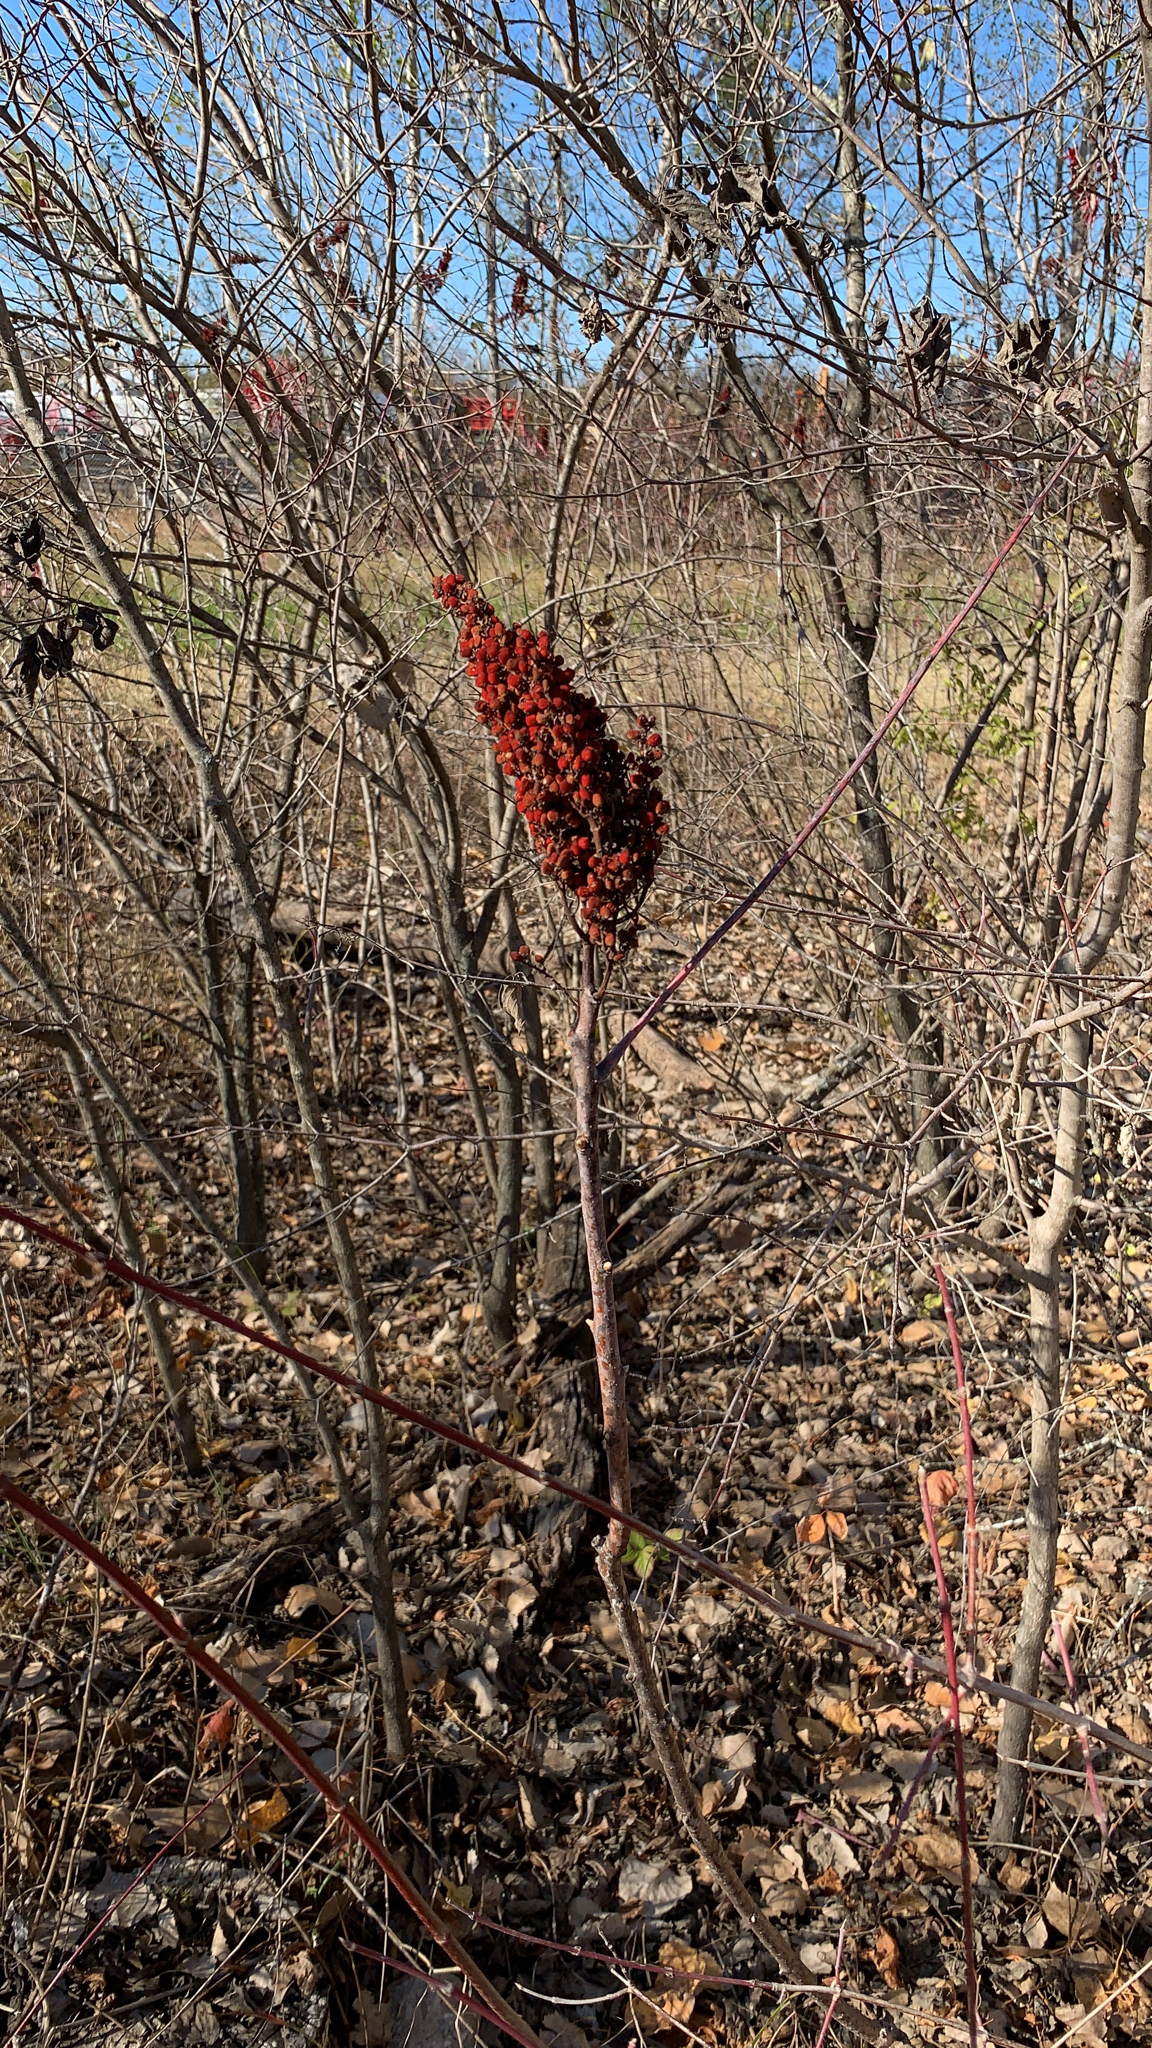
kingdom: Plantae
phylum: Tracheophyta
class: Magnoliopsida
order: Sapindales
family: Anacardiaceae
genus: Rhus
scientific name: Rhus glabra
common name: Scarlet sumac
